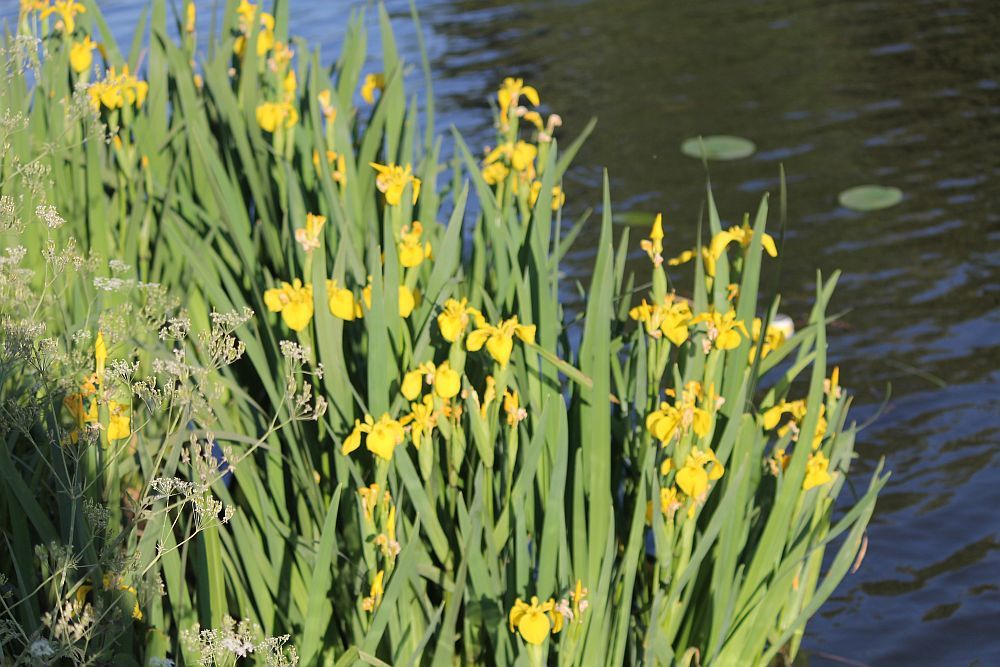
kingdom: Plantae
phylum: Tracheophyta
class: Liliopsida
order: Asparagales
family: Iridaceae
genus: Iris
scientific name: Iris pseudacorus
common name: Yellow flag
